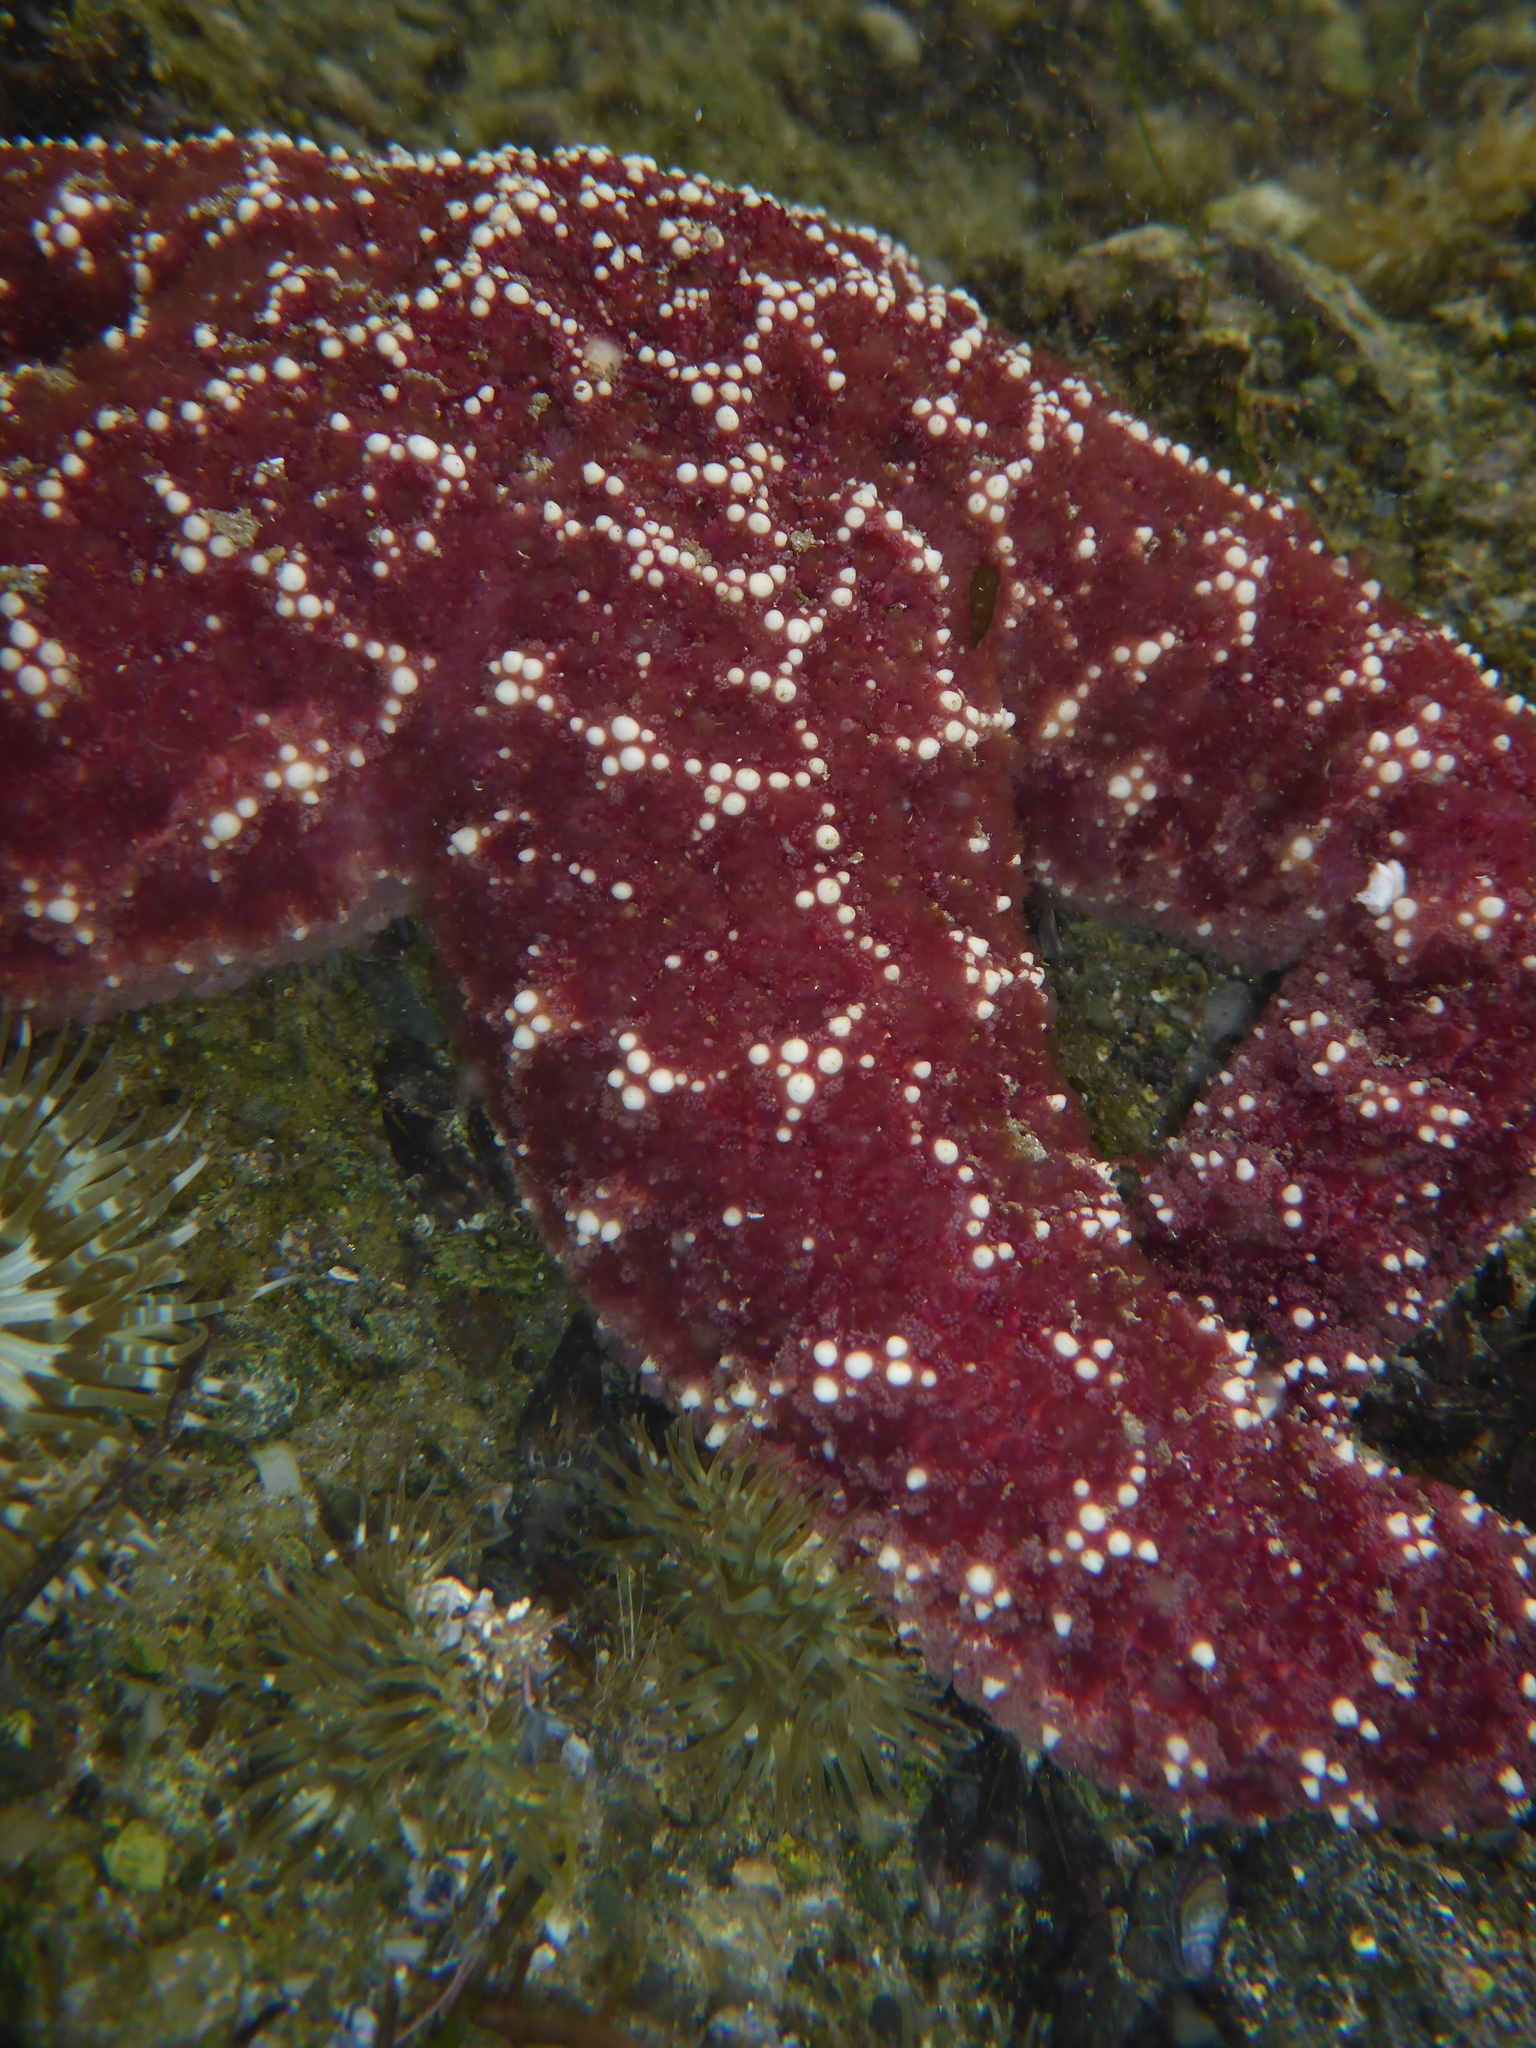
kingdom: Animalia
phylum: Echinodermata
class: Asteroidea
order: Forcipulatida
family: Asteriidae
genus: Pisaster
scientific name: Pisaster ochraceus
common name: Ochre stars
